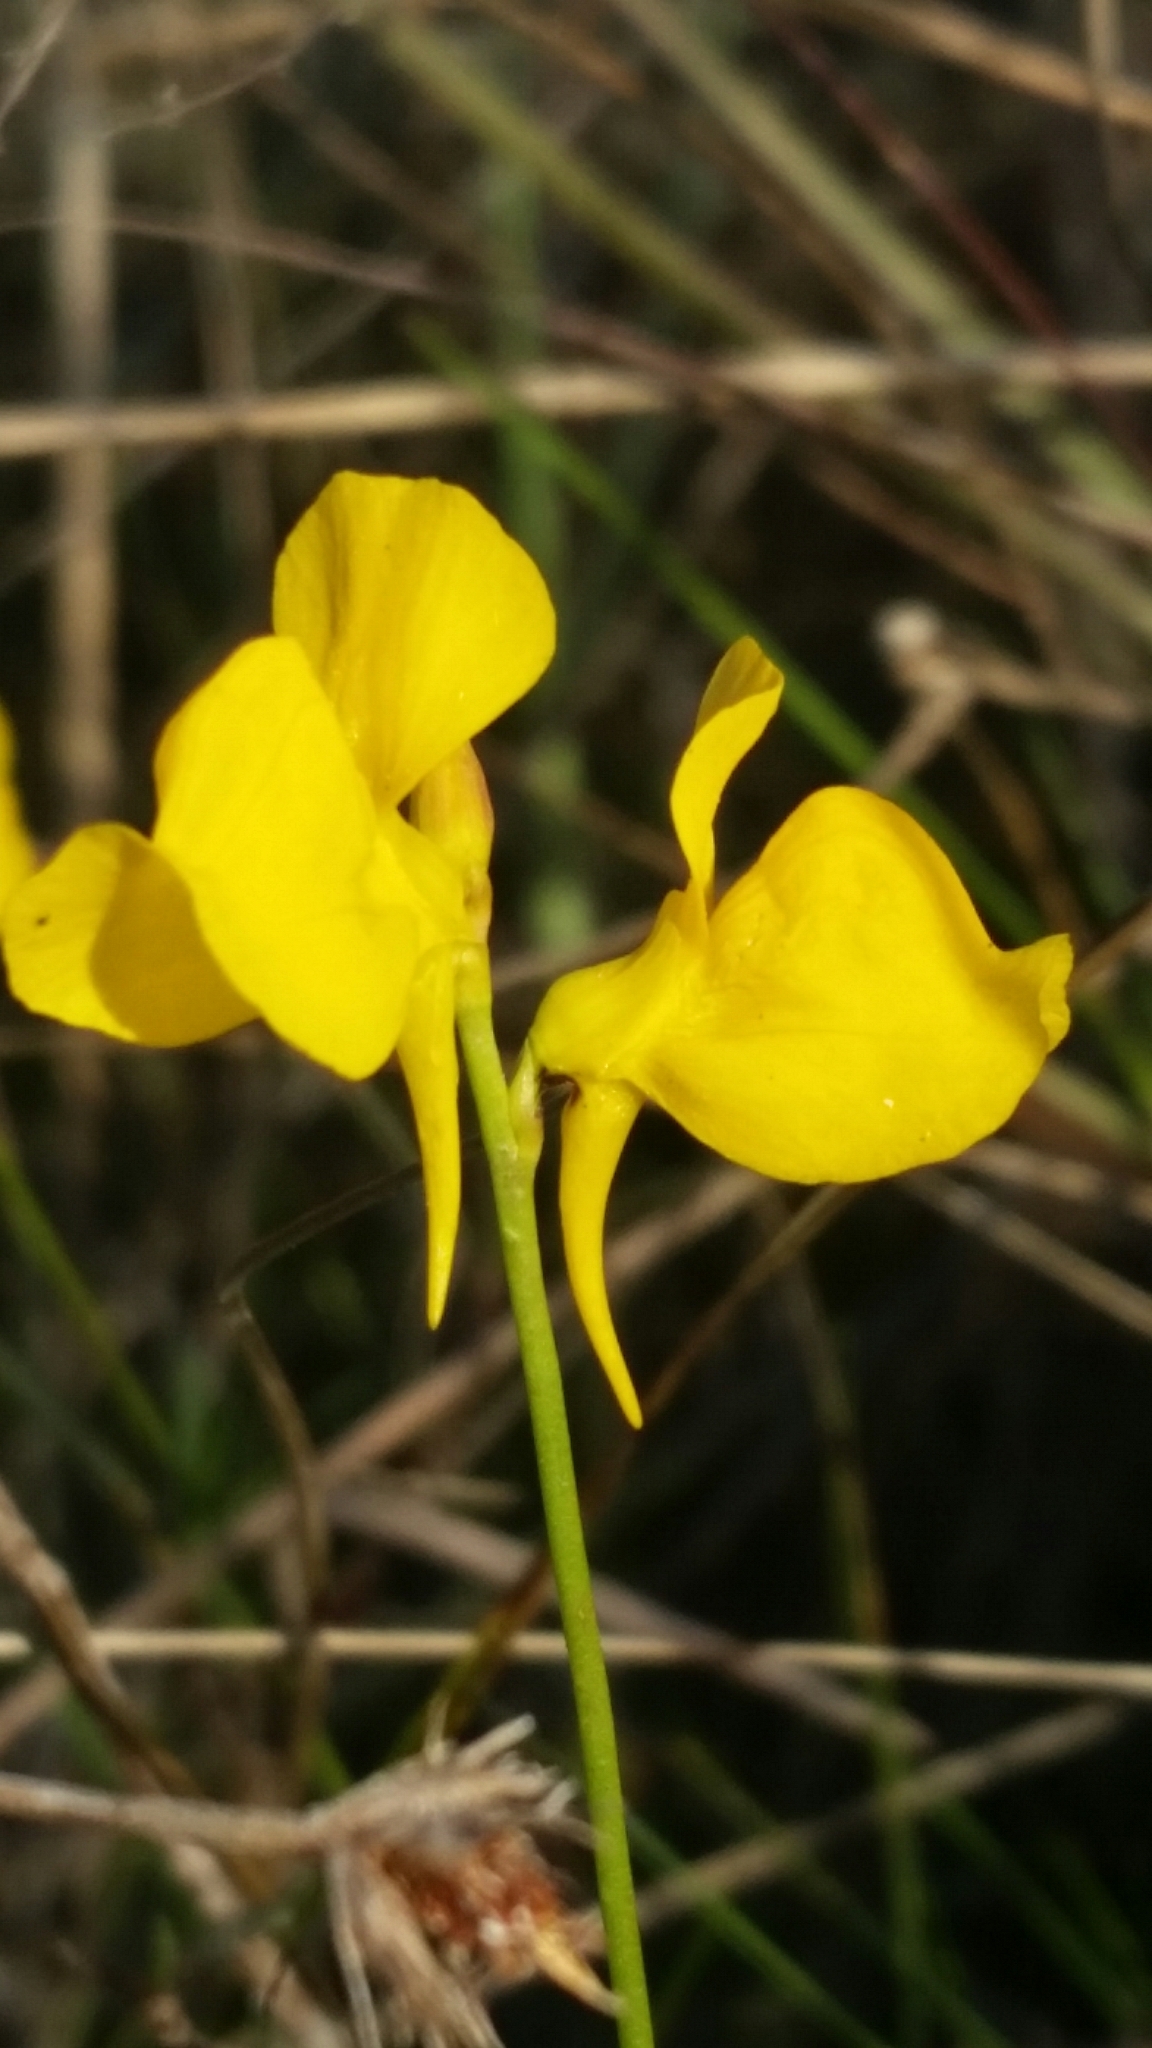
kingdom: Plantae
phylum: Tracheophyta
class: Magnoliopsida
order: Lamiales
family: Lentibulariaceae
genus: Utricularia
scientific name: Utricularia cornuta
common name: Horned bladderwort
